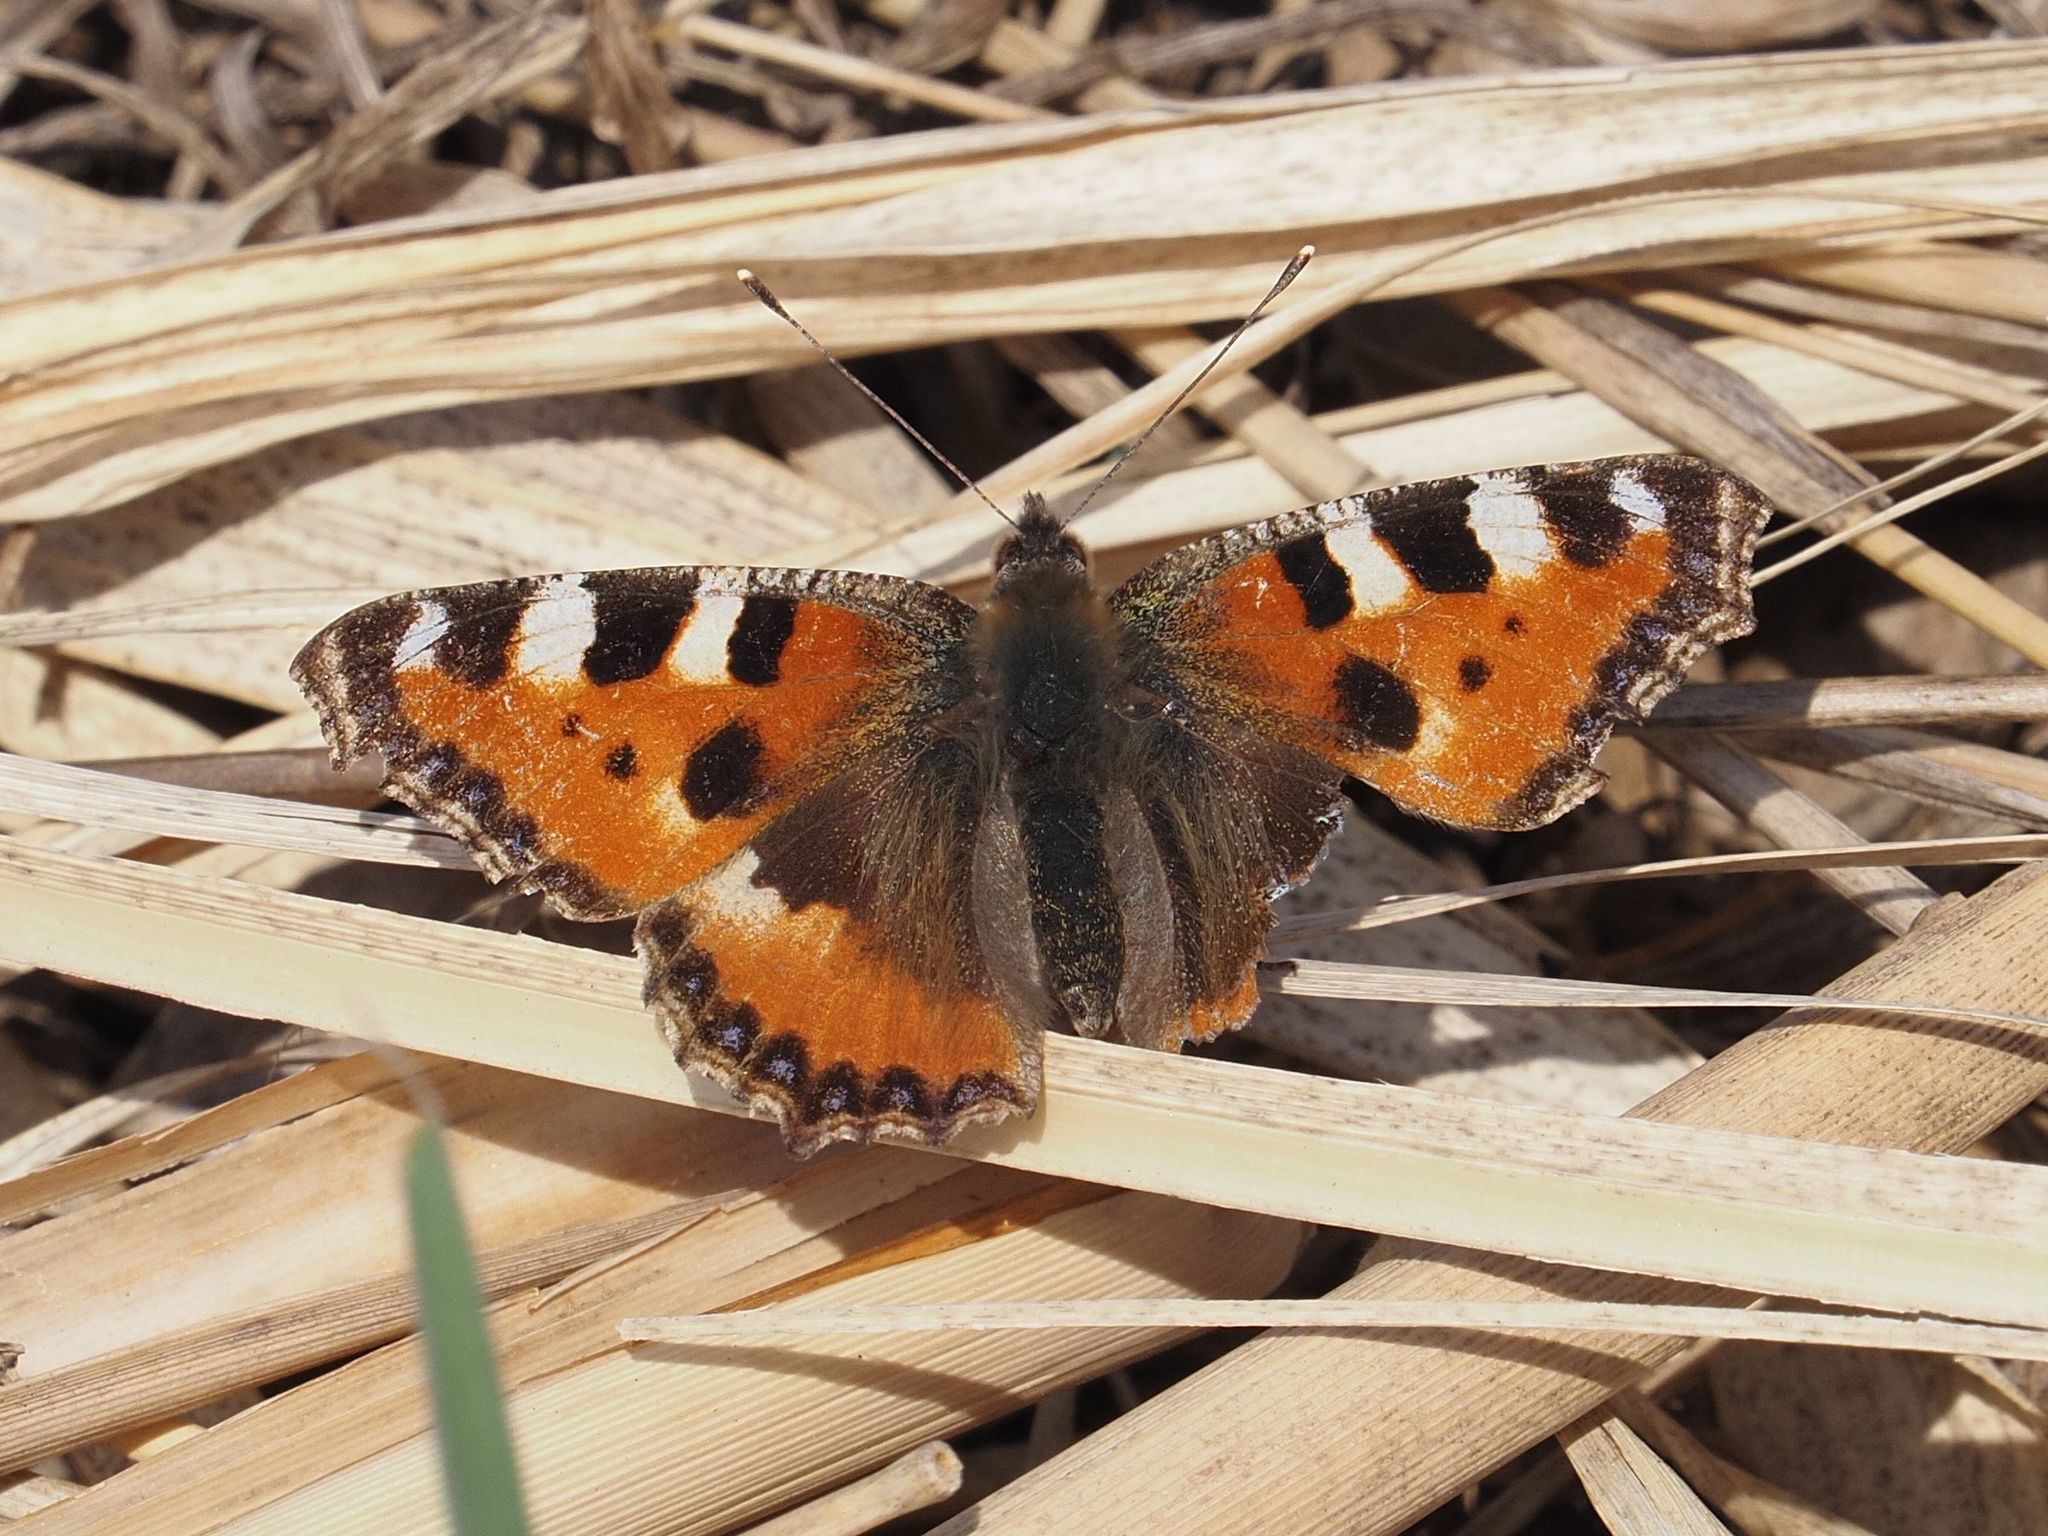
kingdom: Animalia
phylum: Arthropoda
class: Insecta
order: Lepidoptera
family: Nymphalidae
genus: Aglais
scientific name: Aglais urticae
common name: Small tortoiseshell
